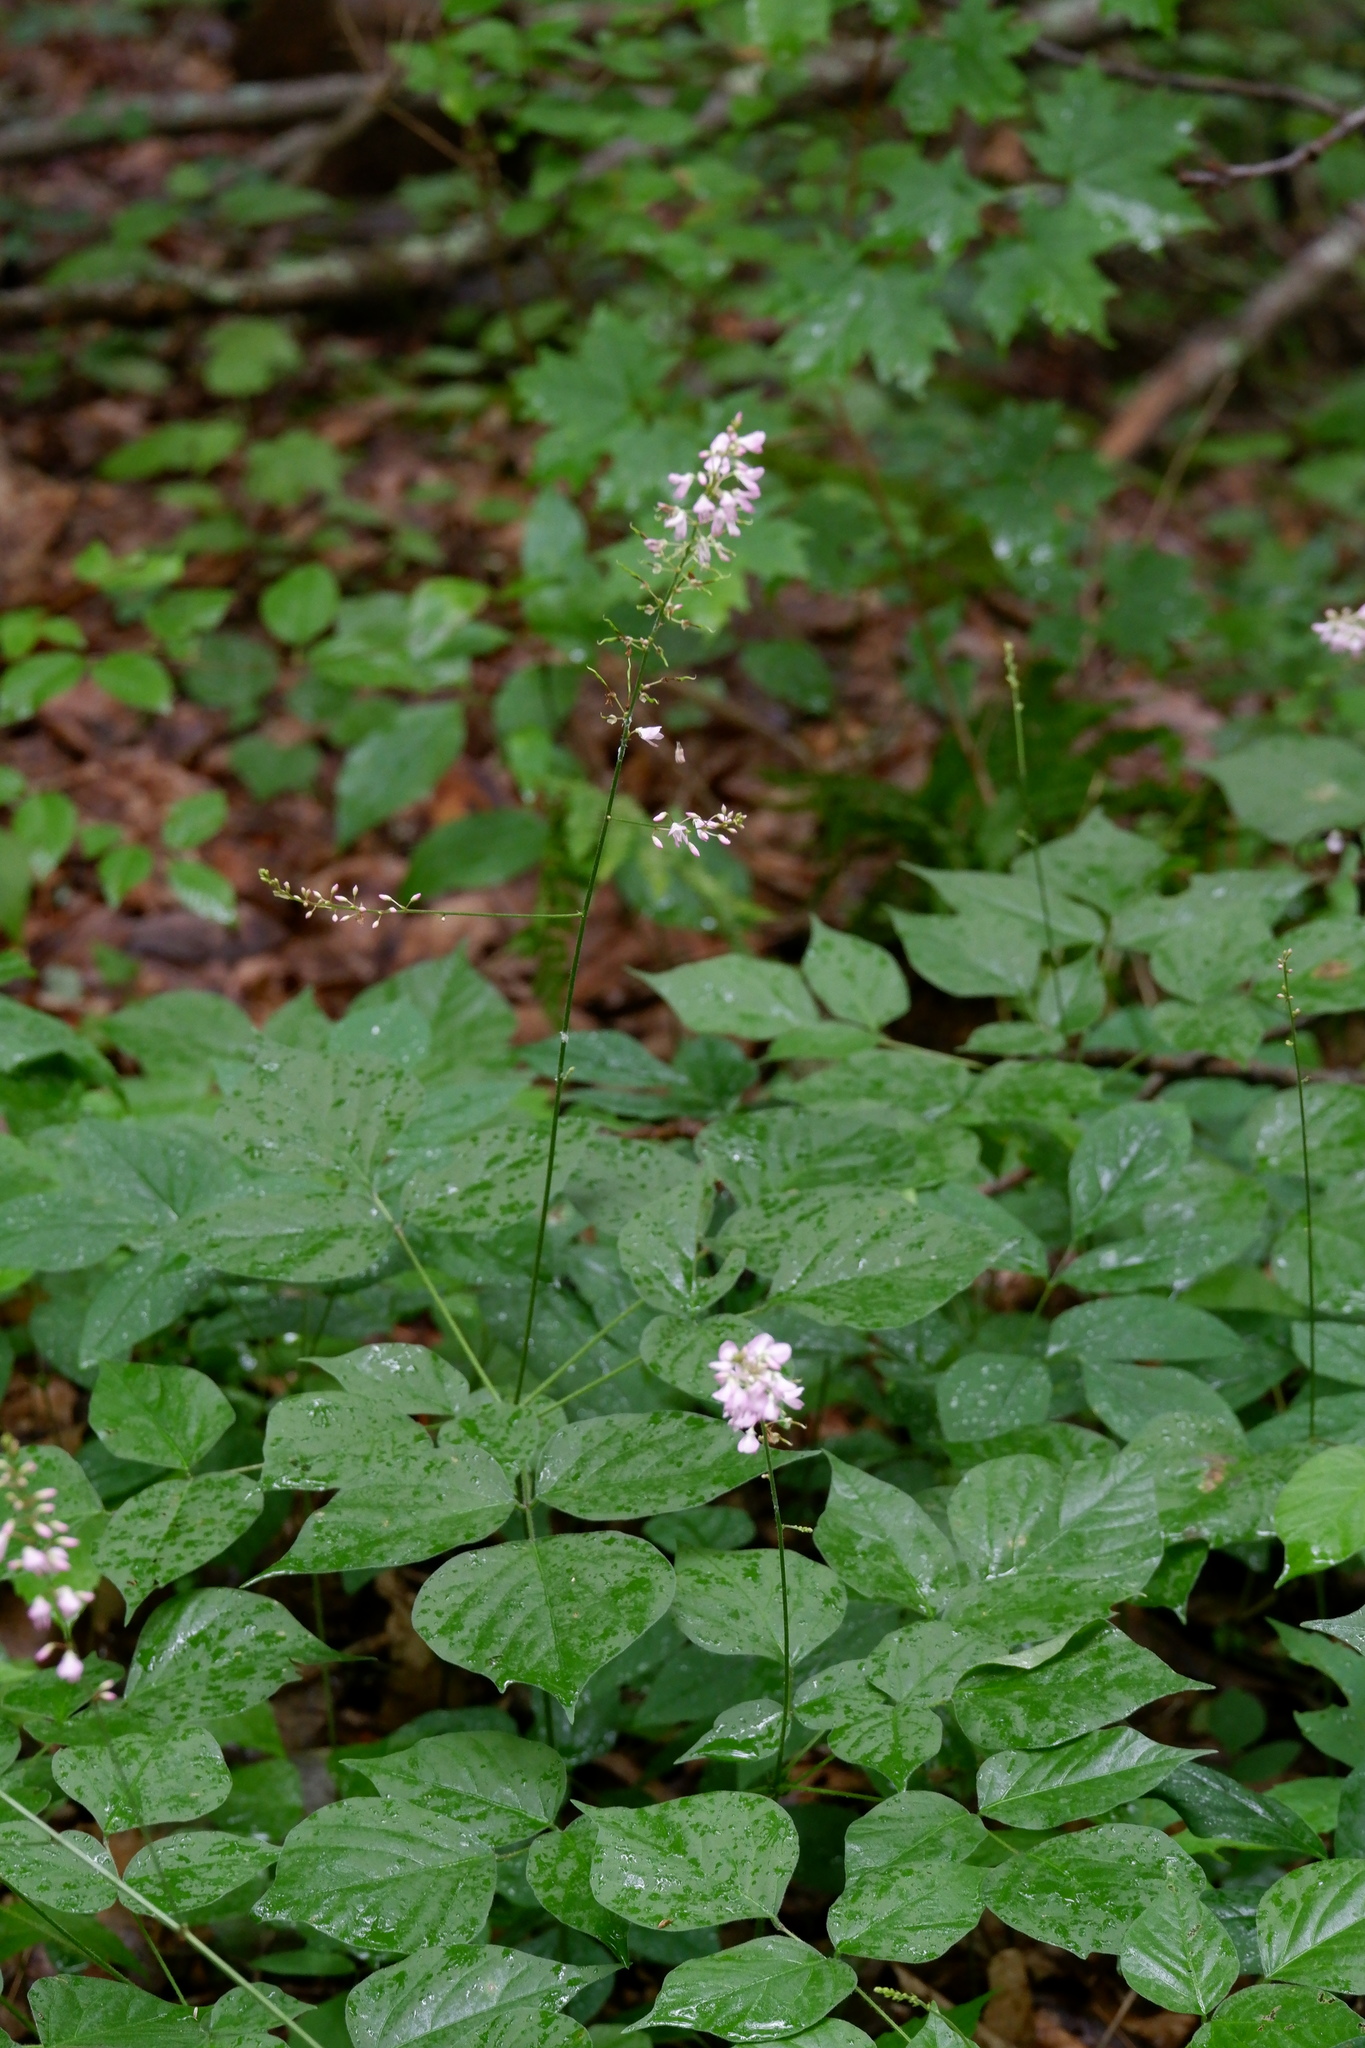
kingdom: Plantae
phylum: Tracheophyta
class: Magnoliopsida
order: Fabales
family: Fabaceae
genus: Hylodesmum
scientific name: Hylodesmum glutinosum
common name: Clustered-leaved tick-trefoil
